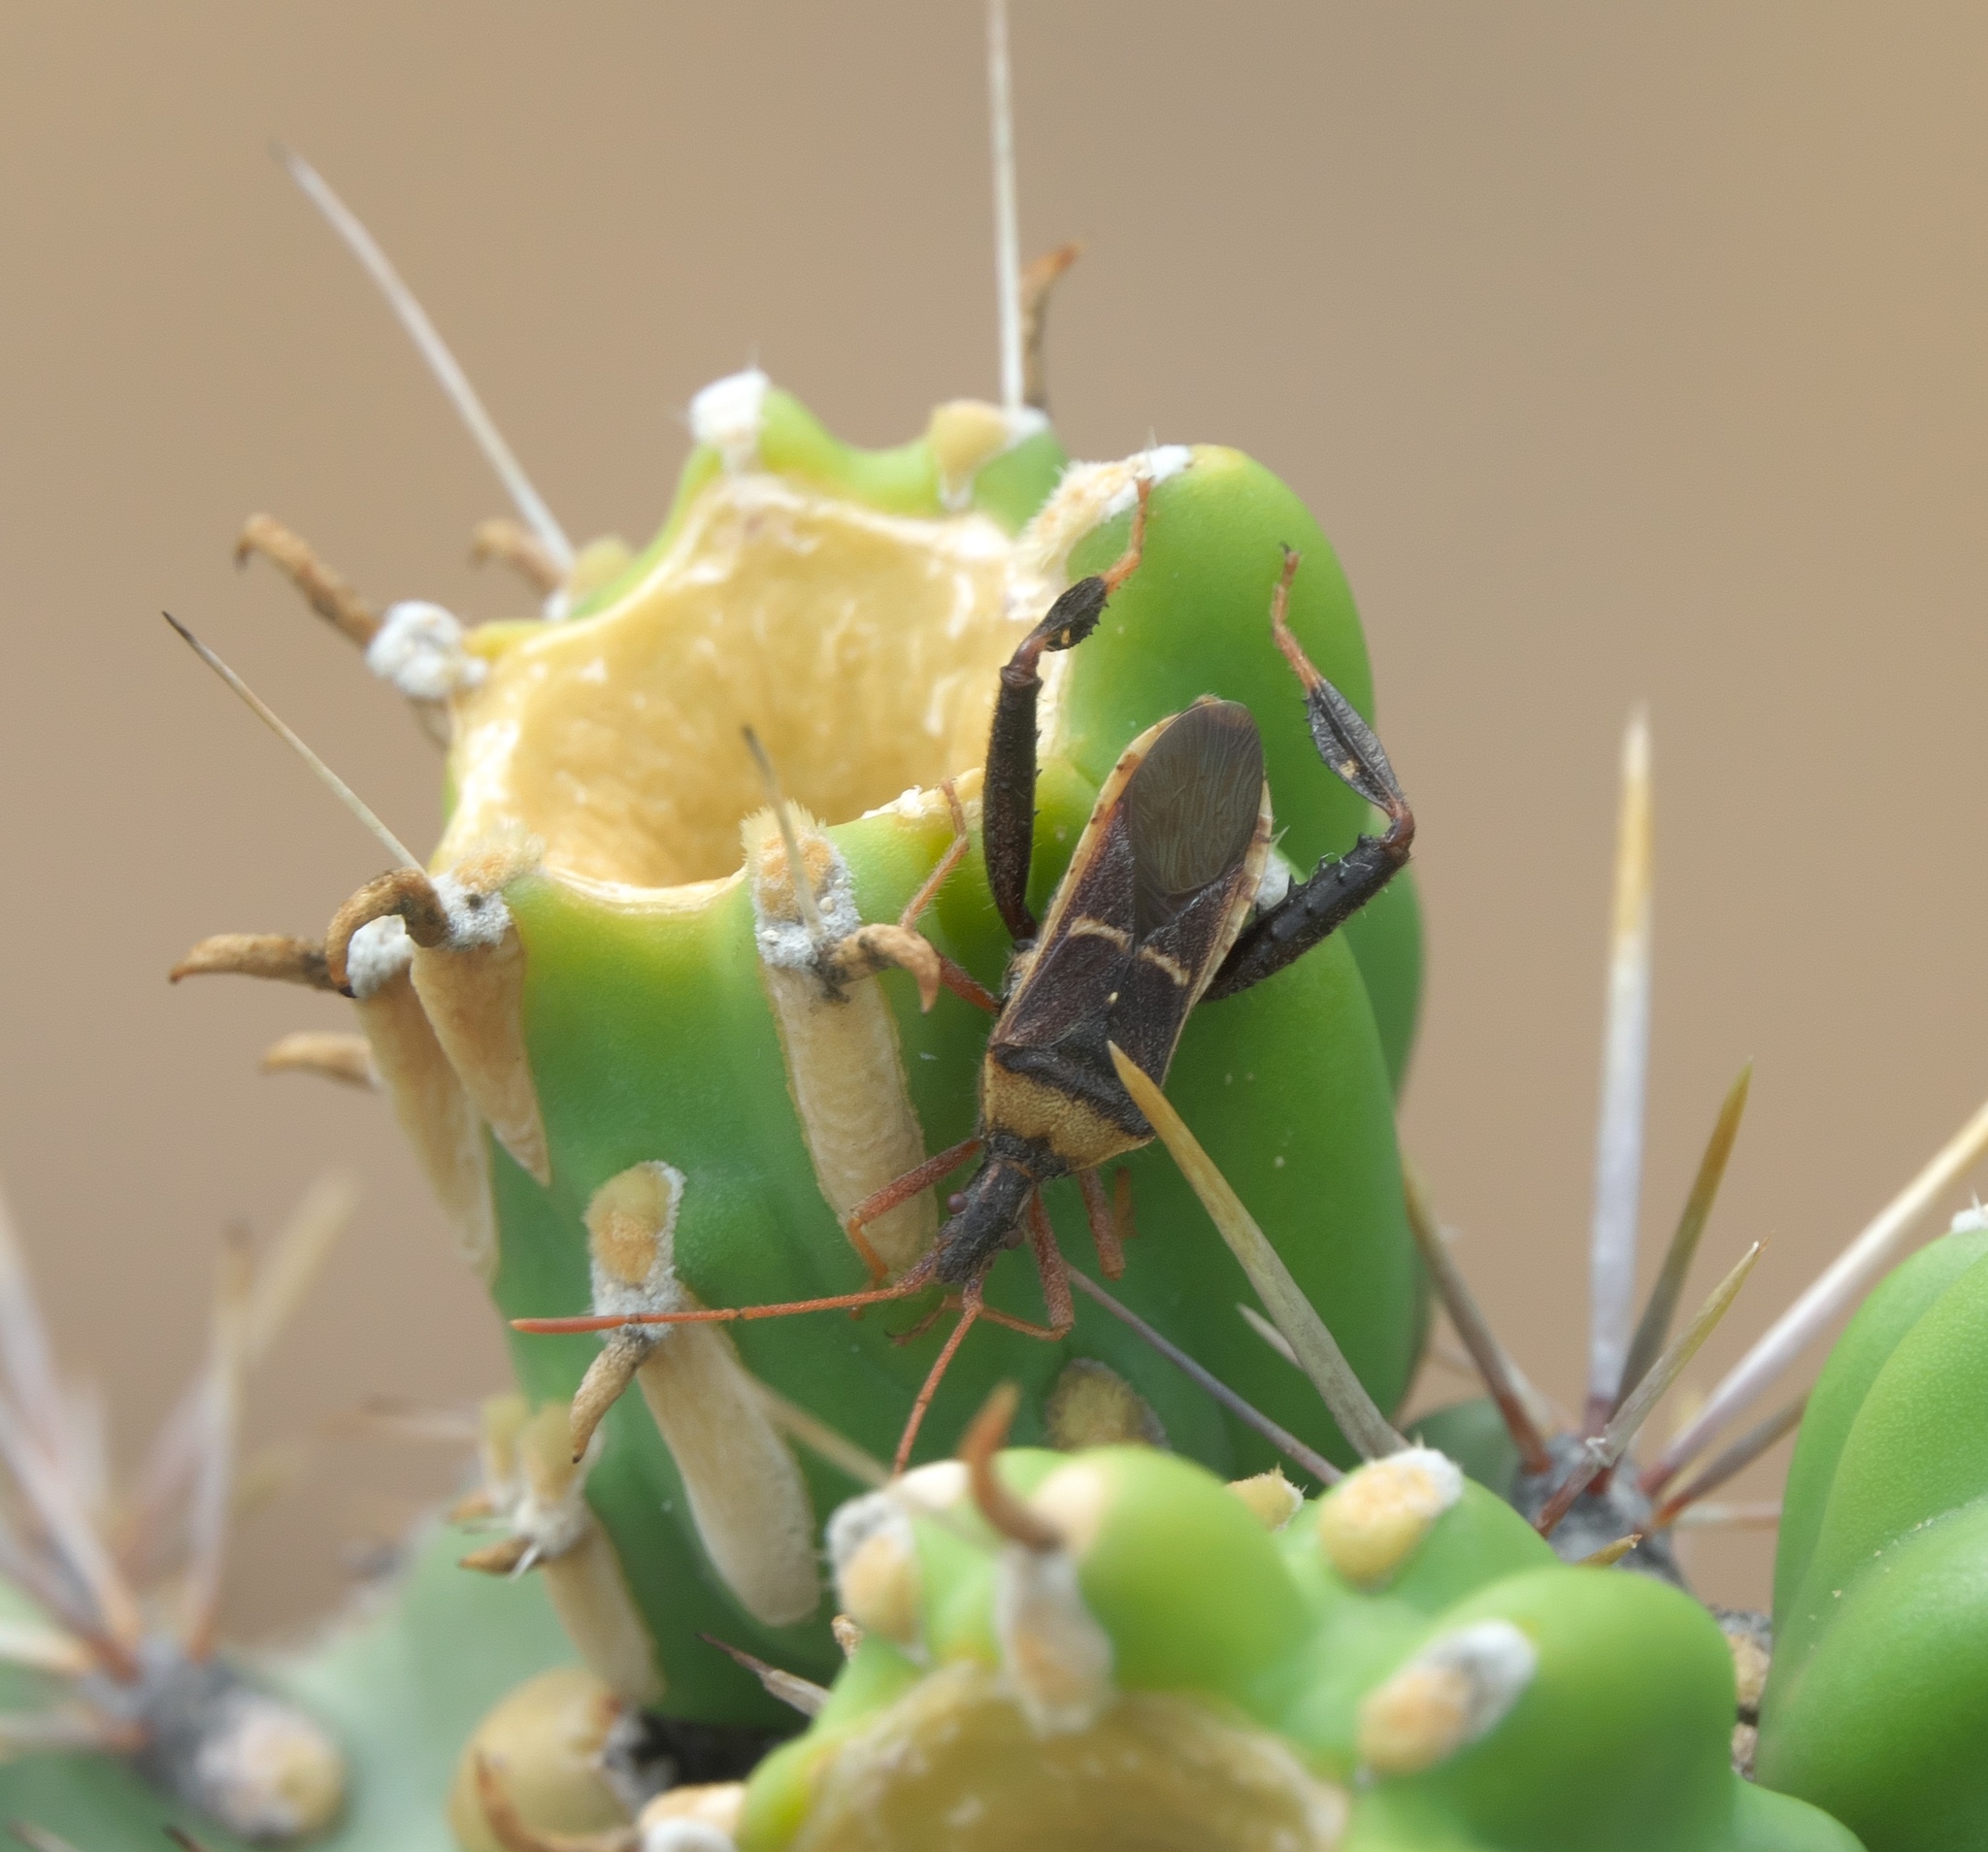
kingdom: Animalia
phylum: Arthropoda
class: Insecta
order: Hemiptera
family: Coreidae
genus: Narnia
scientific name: Narnia snowi
